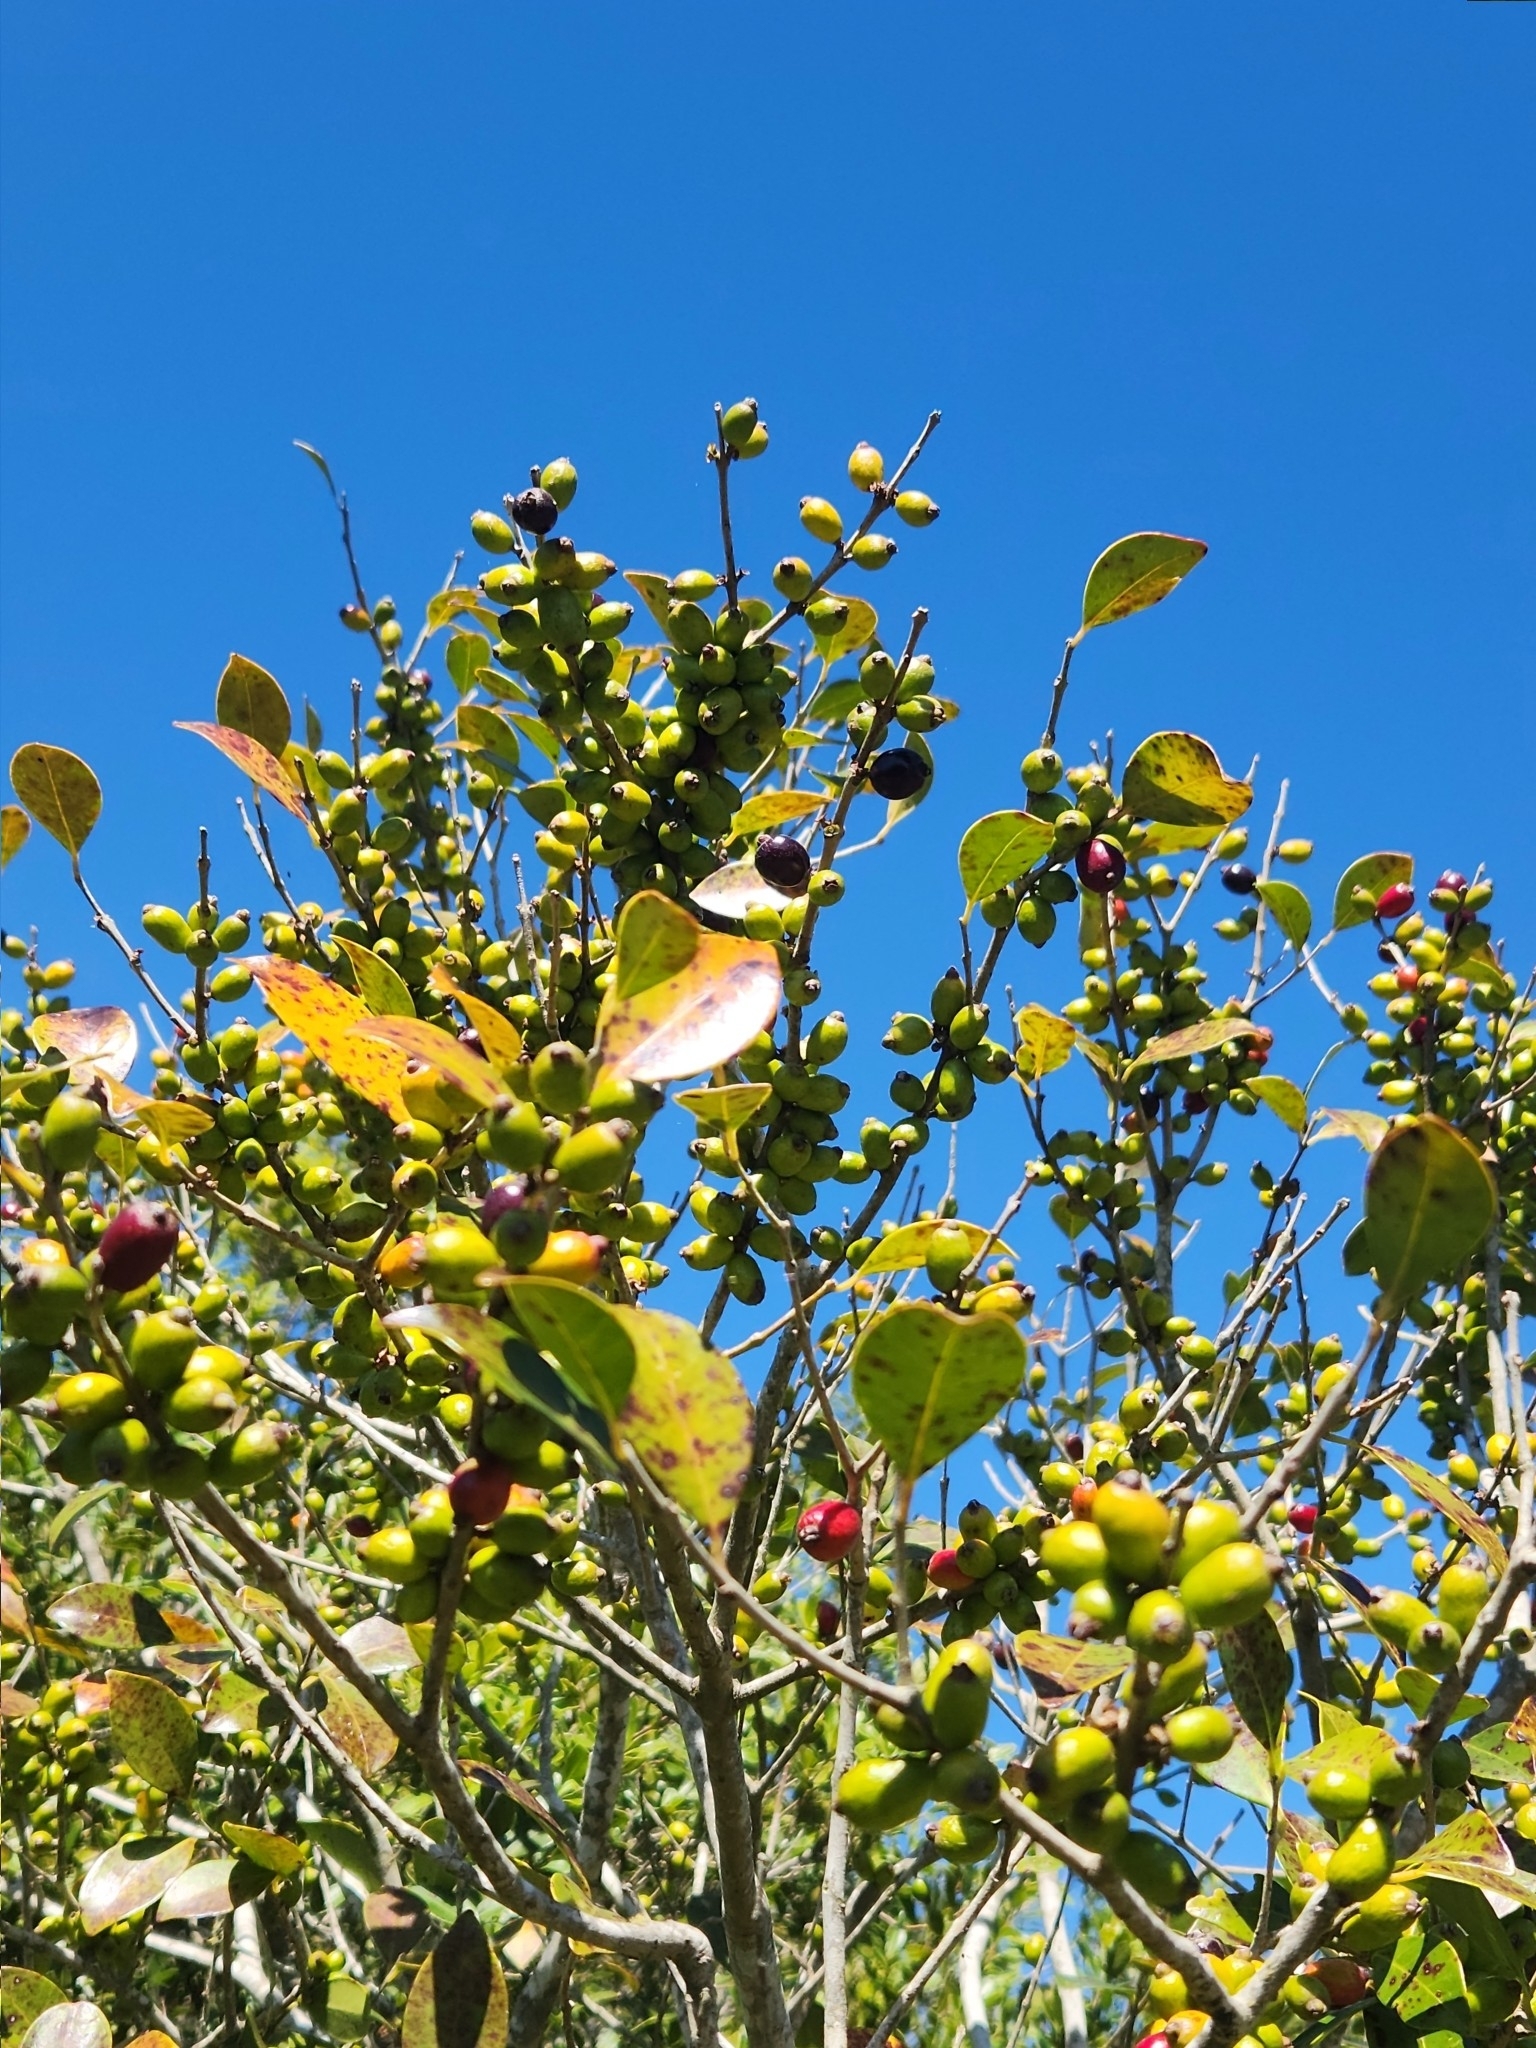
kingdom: Plantae
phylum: Tracheophyta
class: Magnoliopsida
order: Myrtales
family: Myrtaceae
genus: Eugenia
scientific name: Eugenia uruguayensis
